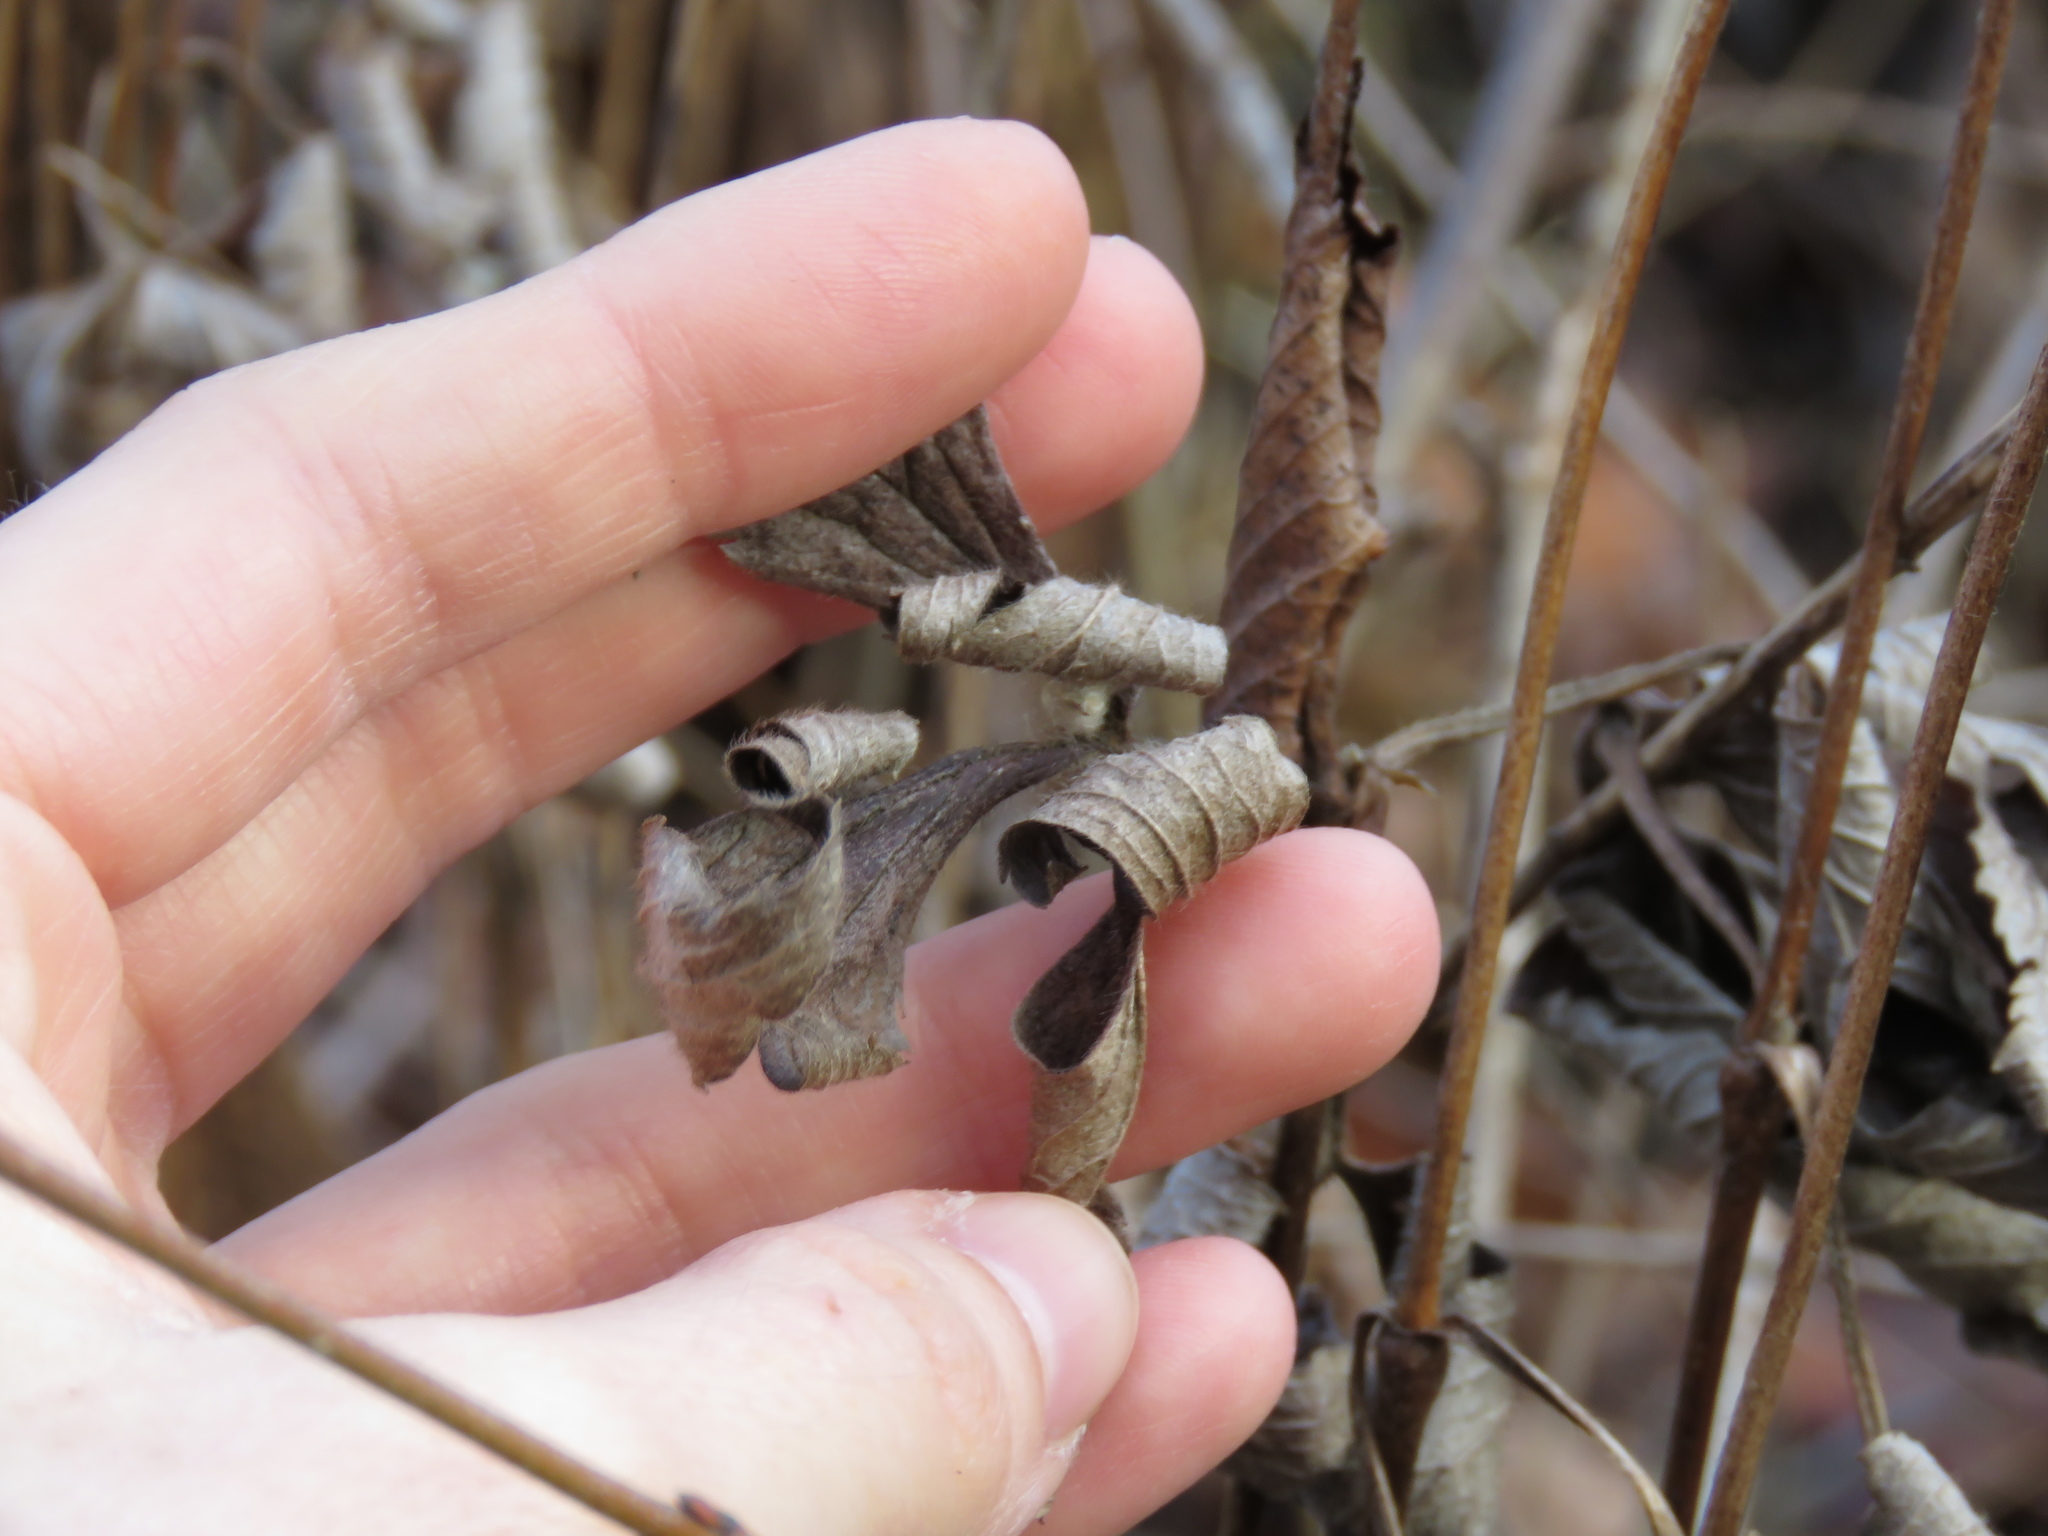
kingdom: Plantae
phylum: Tracheophyta
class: Magnoliopsida
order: Ranunculales
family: Ranunculaceae
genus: Anemone
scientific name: Anemone virginiana
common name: Tall anemone
